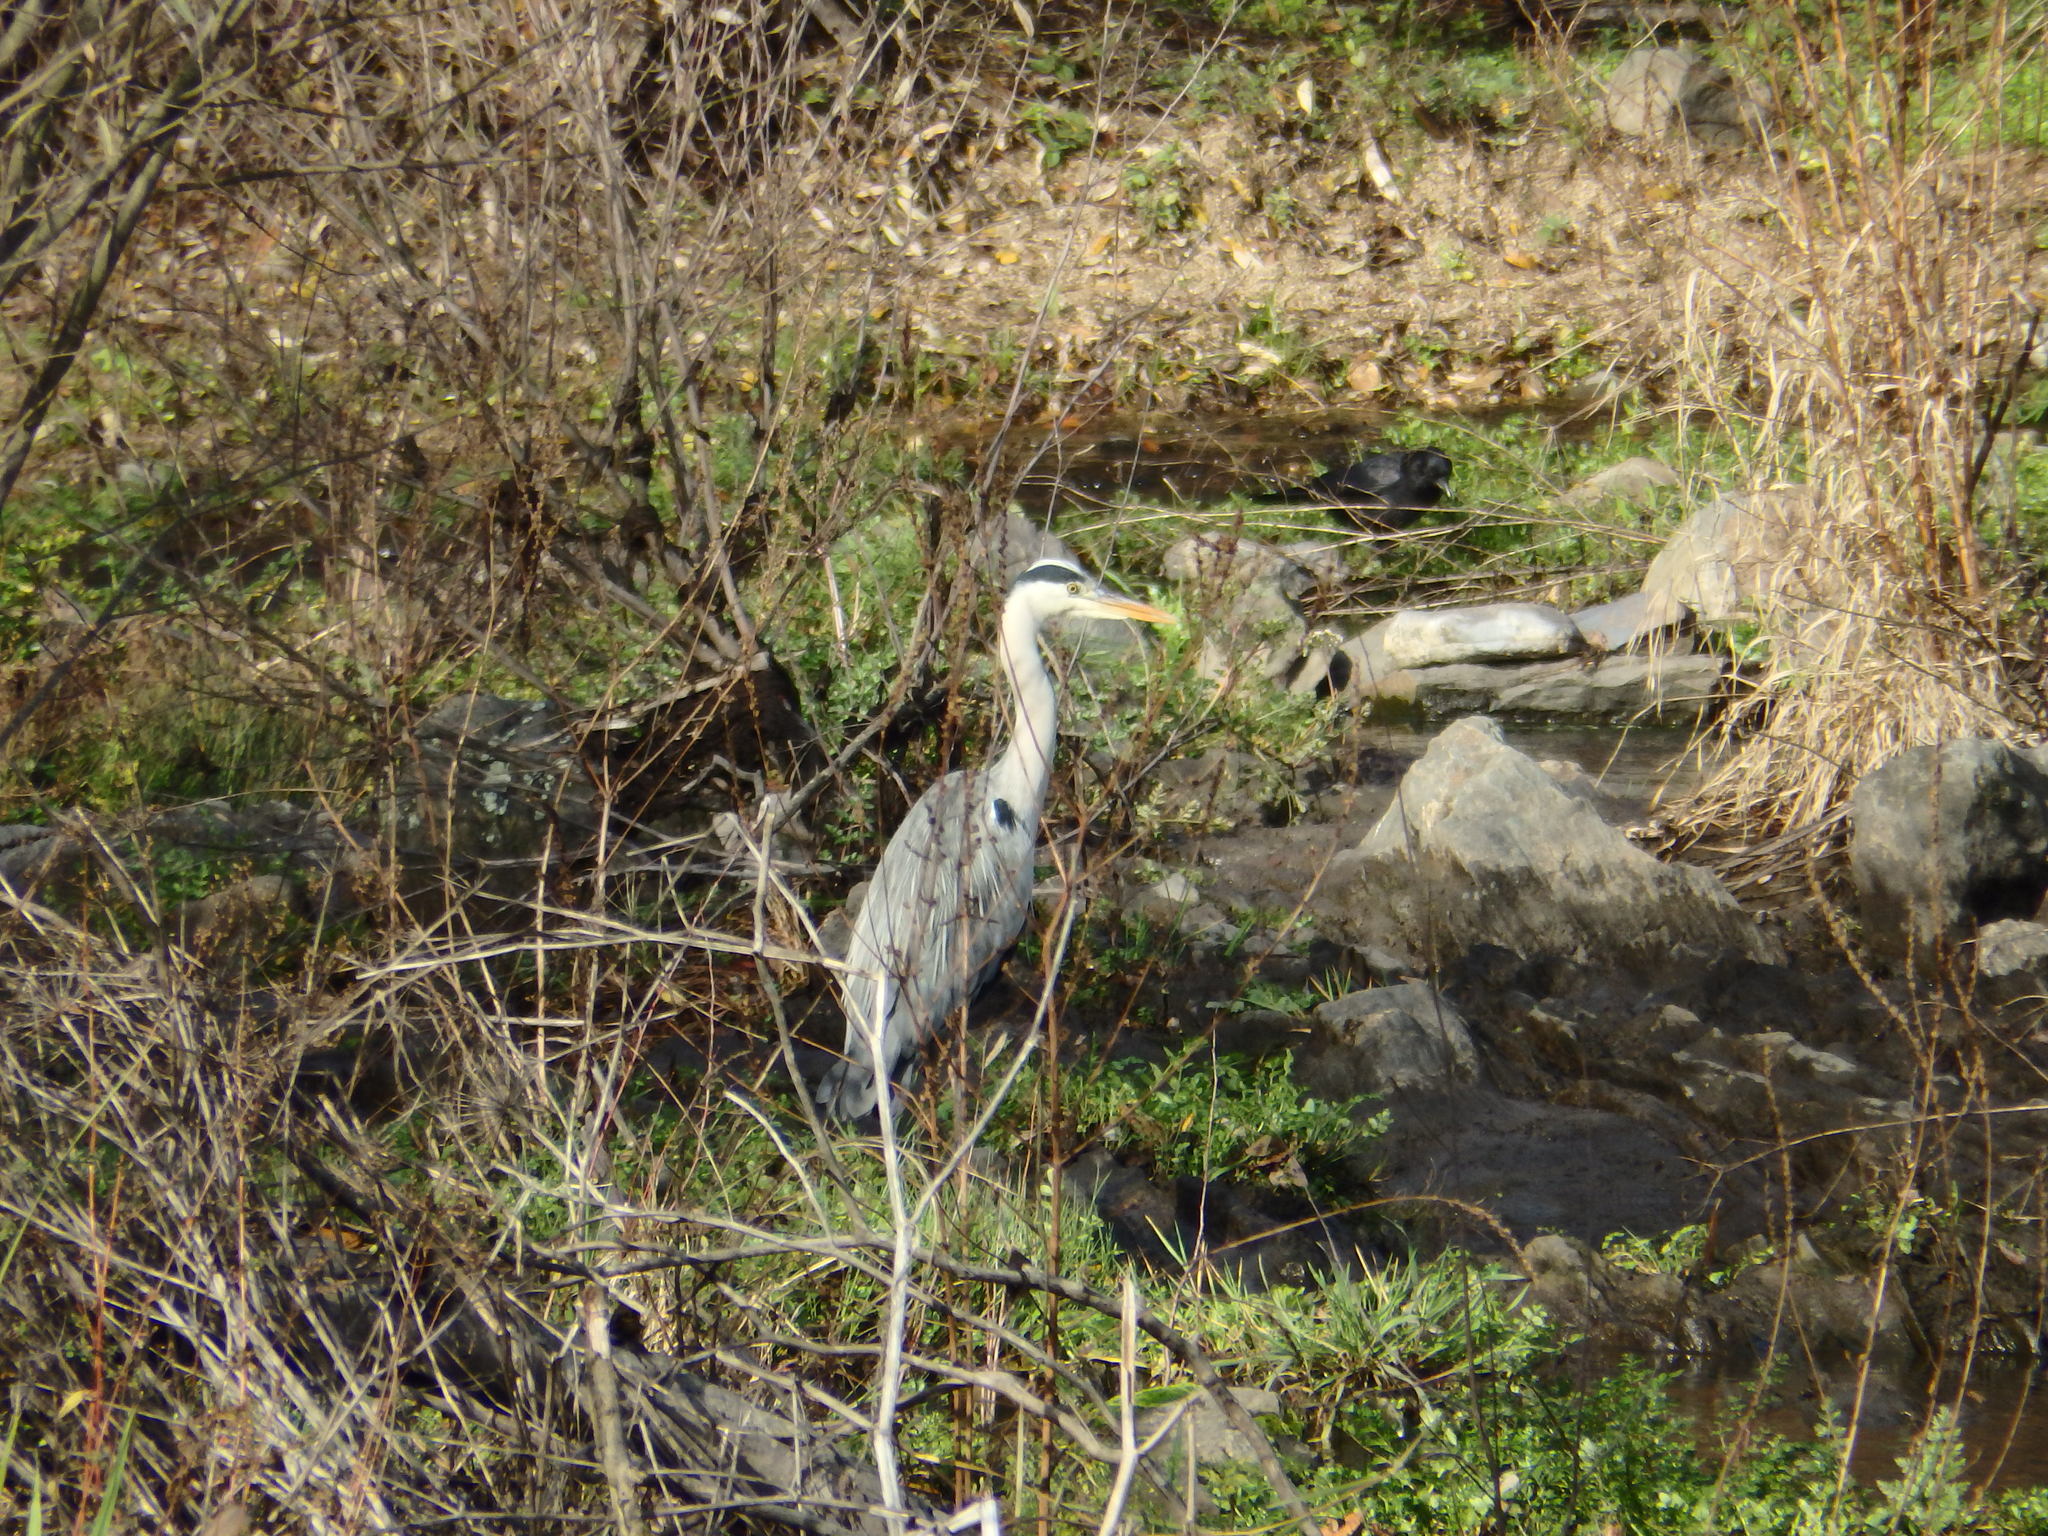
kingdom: Animalia
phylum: Chordata
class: Aves
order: Pelecaniformes
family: Ardeidae
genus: Ardea
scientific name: Ardea cinerea
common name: Grey heron
